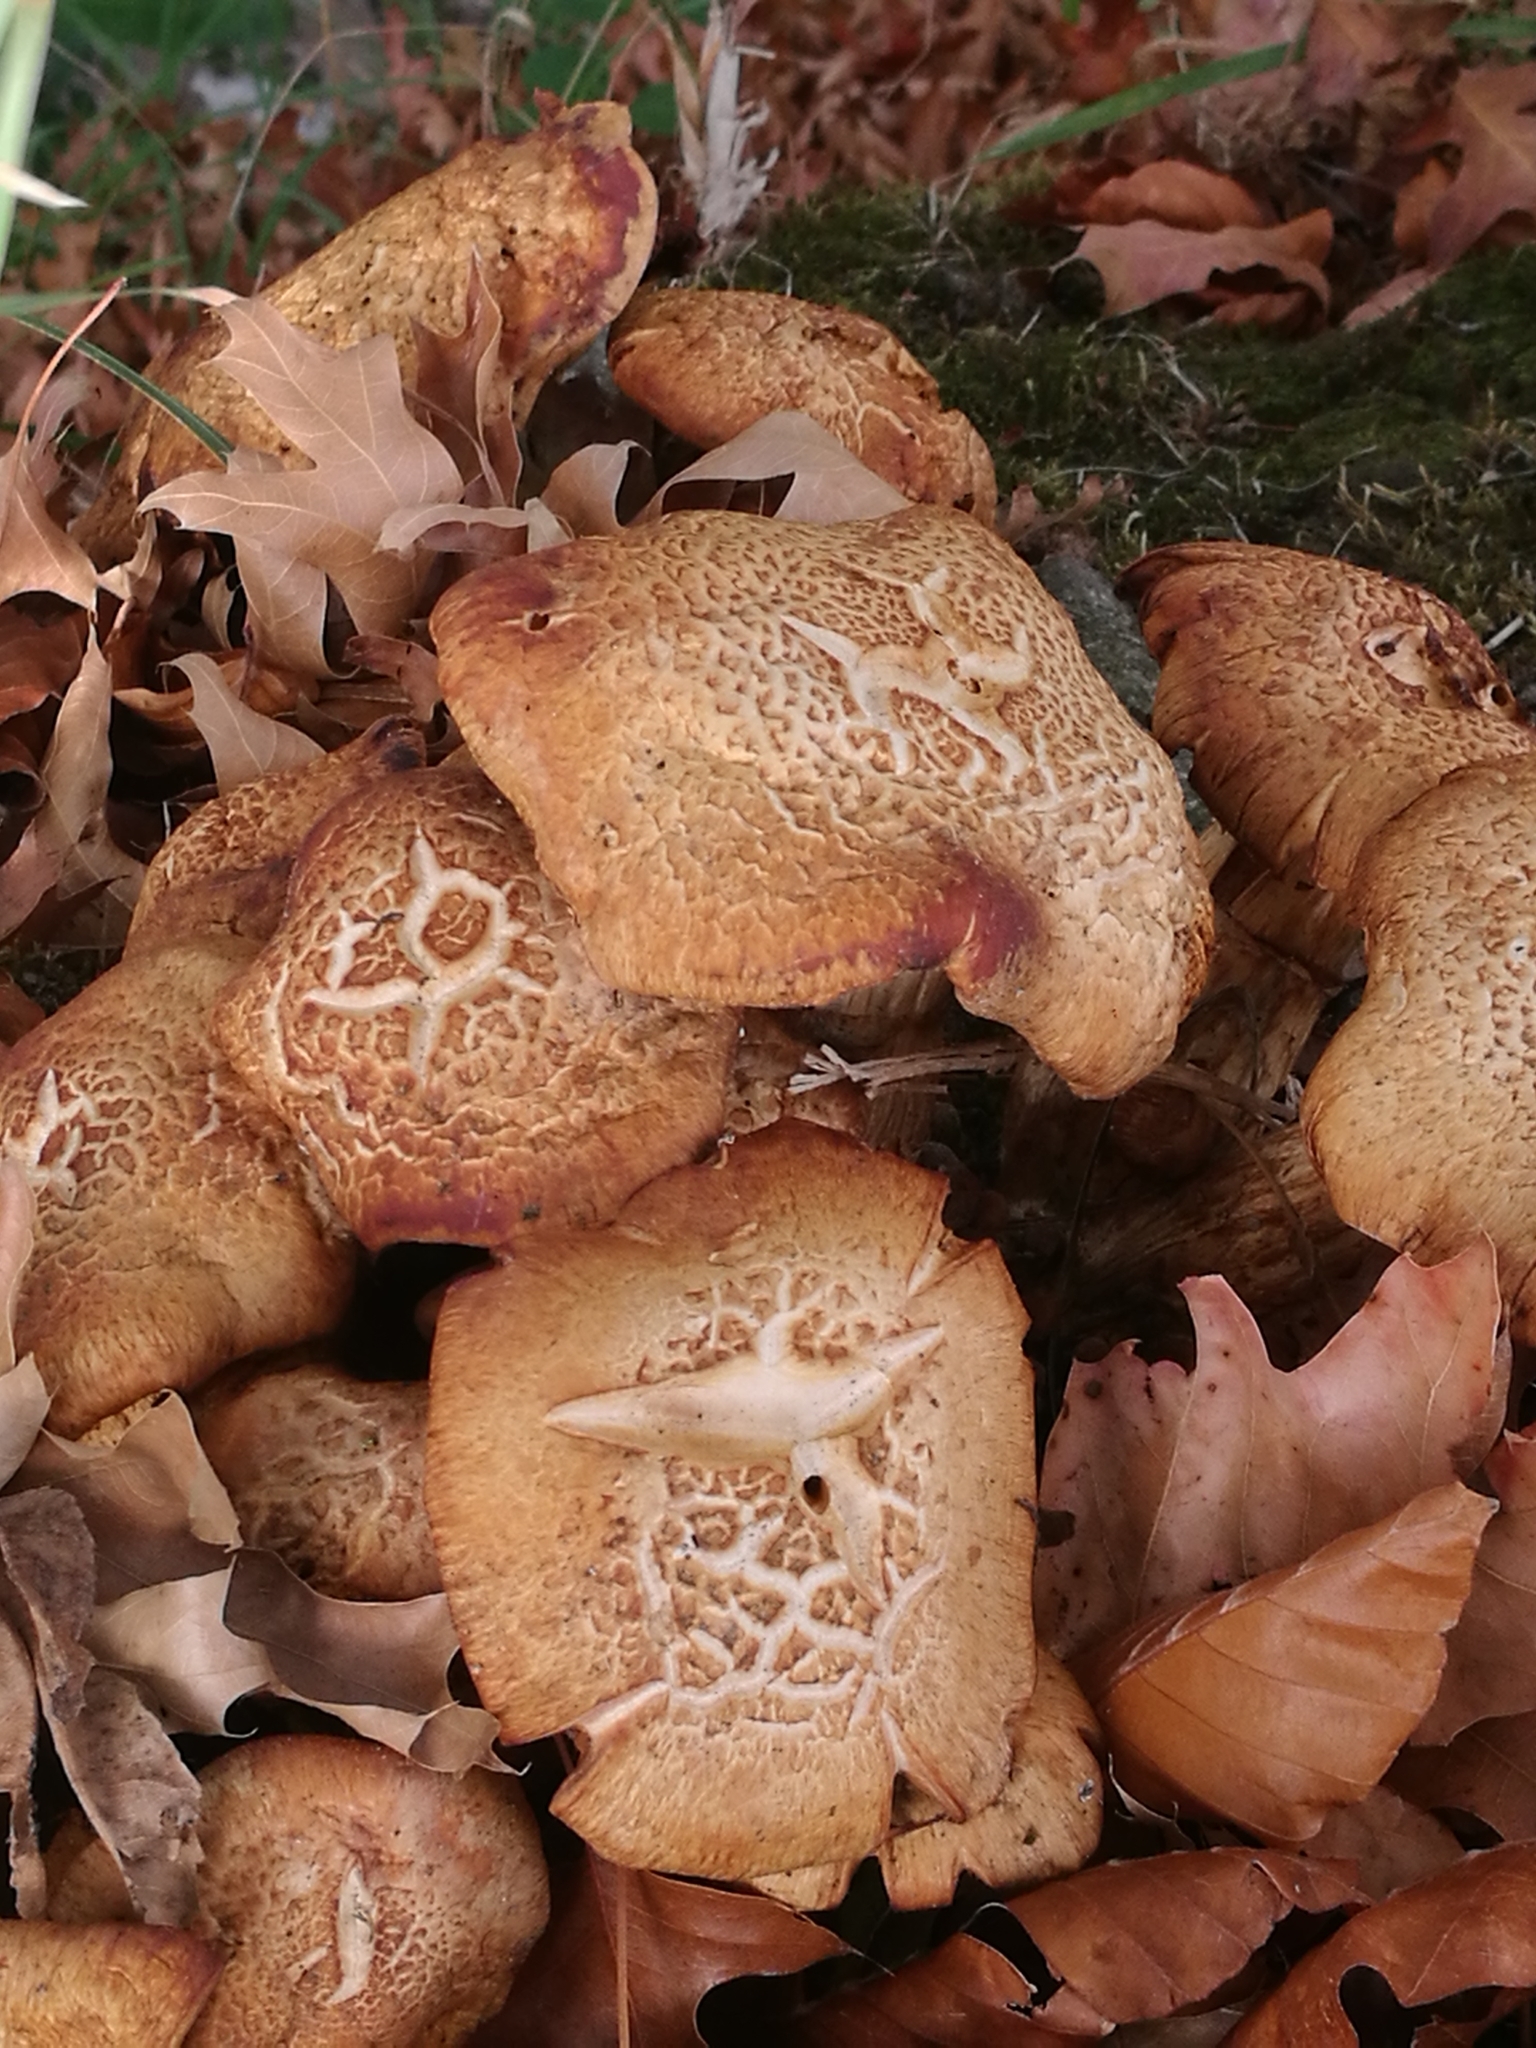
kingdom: Fungi
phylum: Basidiomycota
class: Agaricomycetes
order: Agaricales
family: Hymenogastraceae
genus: Gymnopilus
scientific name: Gymnopilus junonius
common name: Spectacular rustgill
